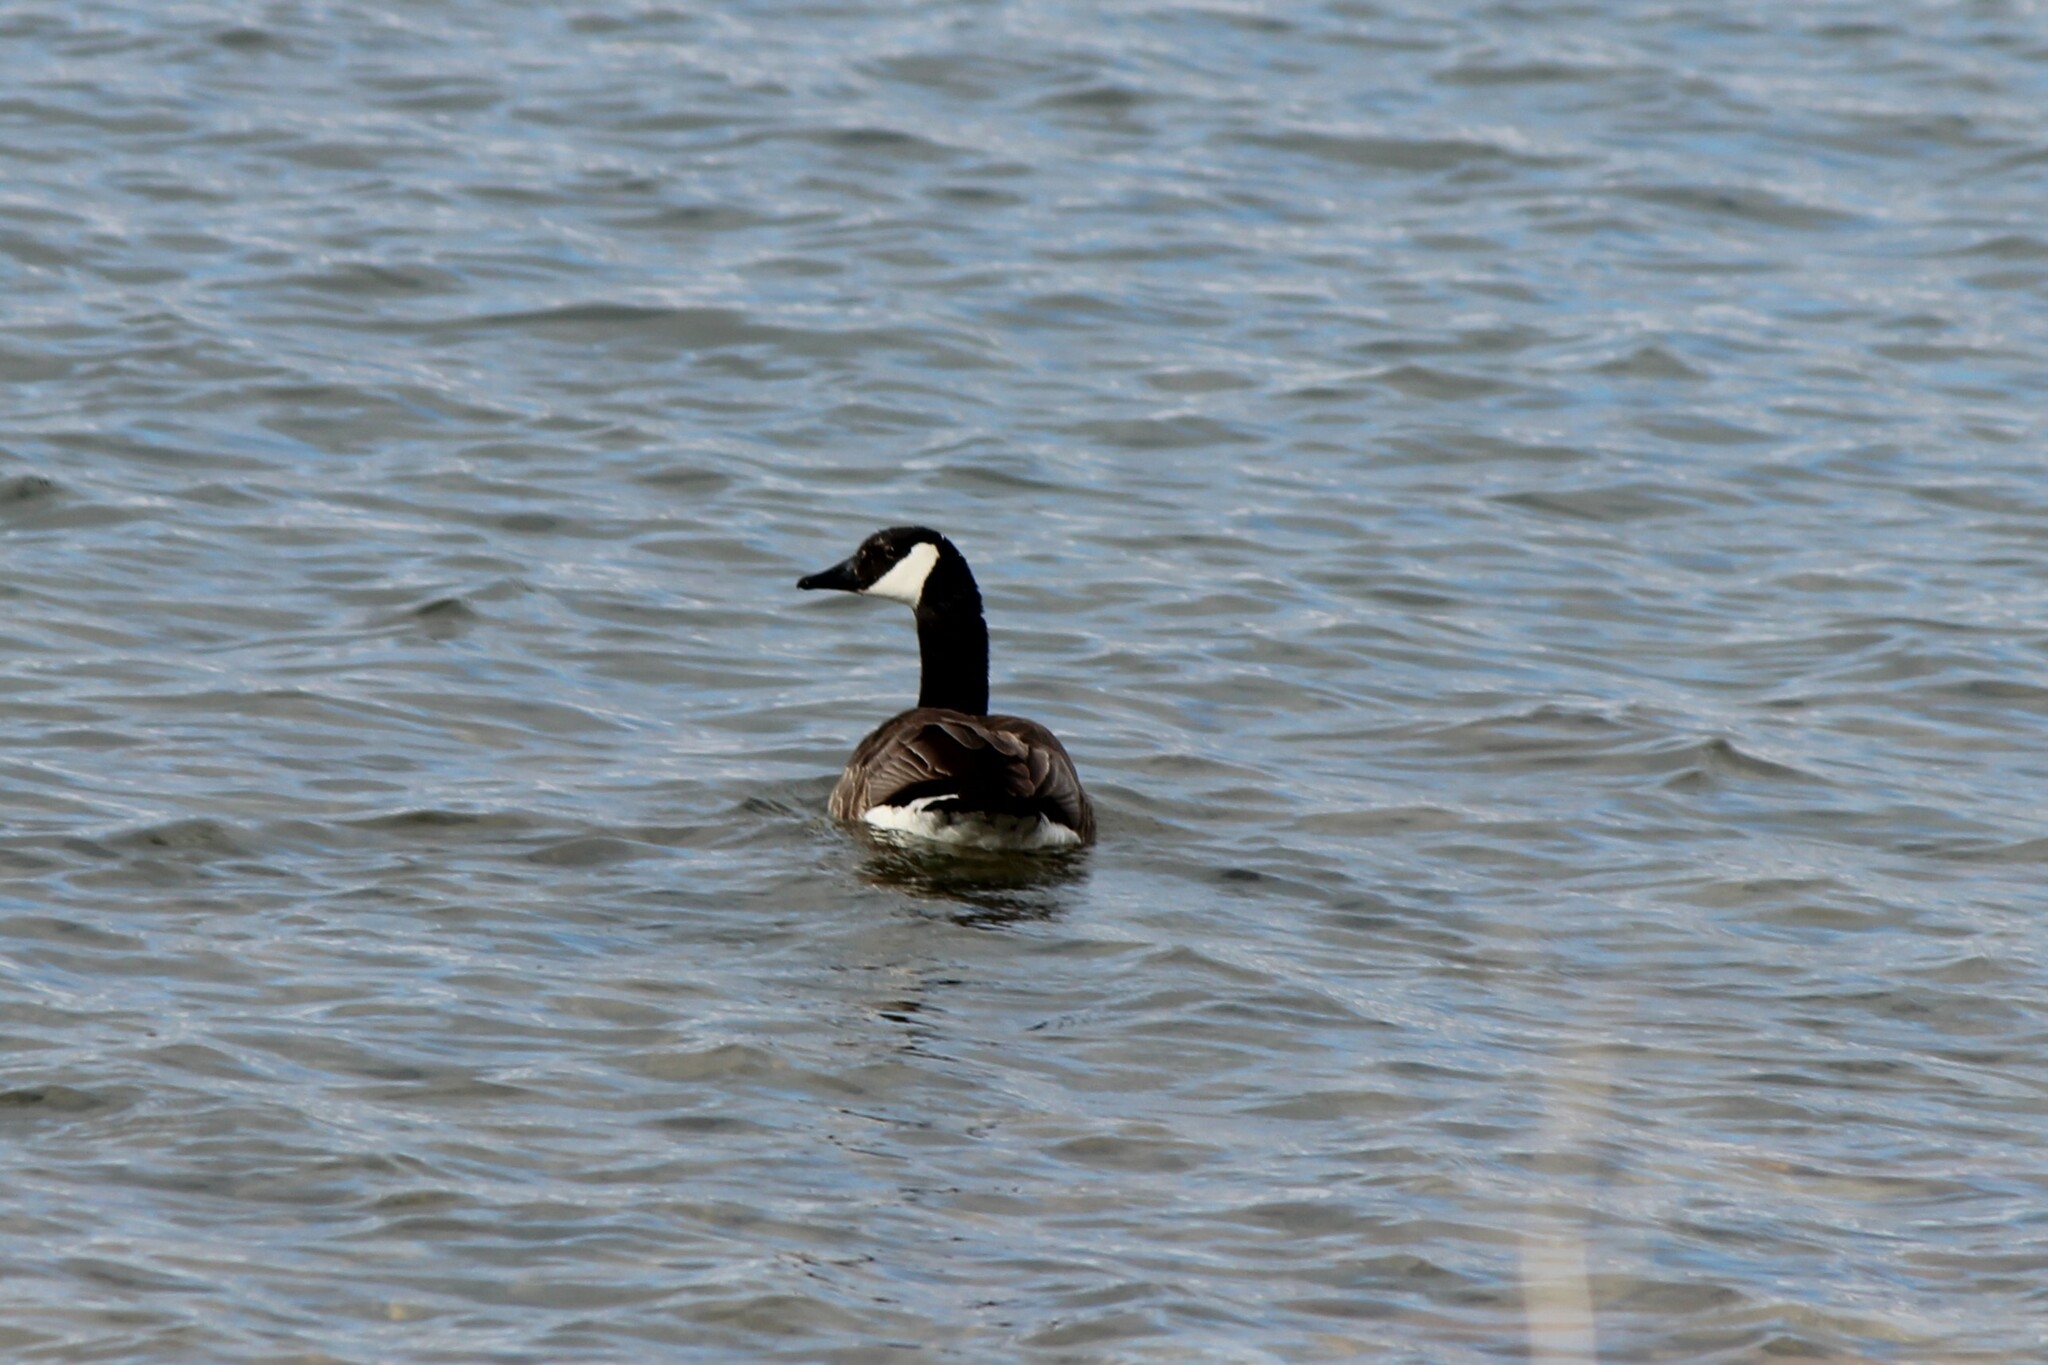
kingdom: Animalia
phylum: Chordata
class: Aves
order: Anseriformes
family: Anatidae
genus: Branta
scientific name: Branta canadensis
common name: Canada goose
